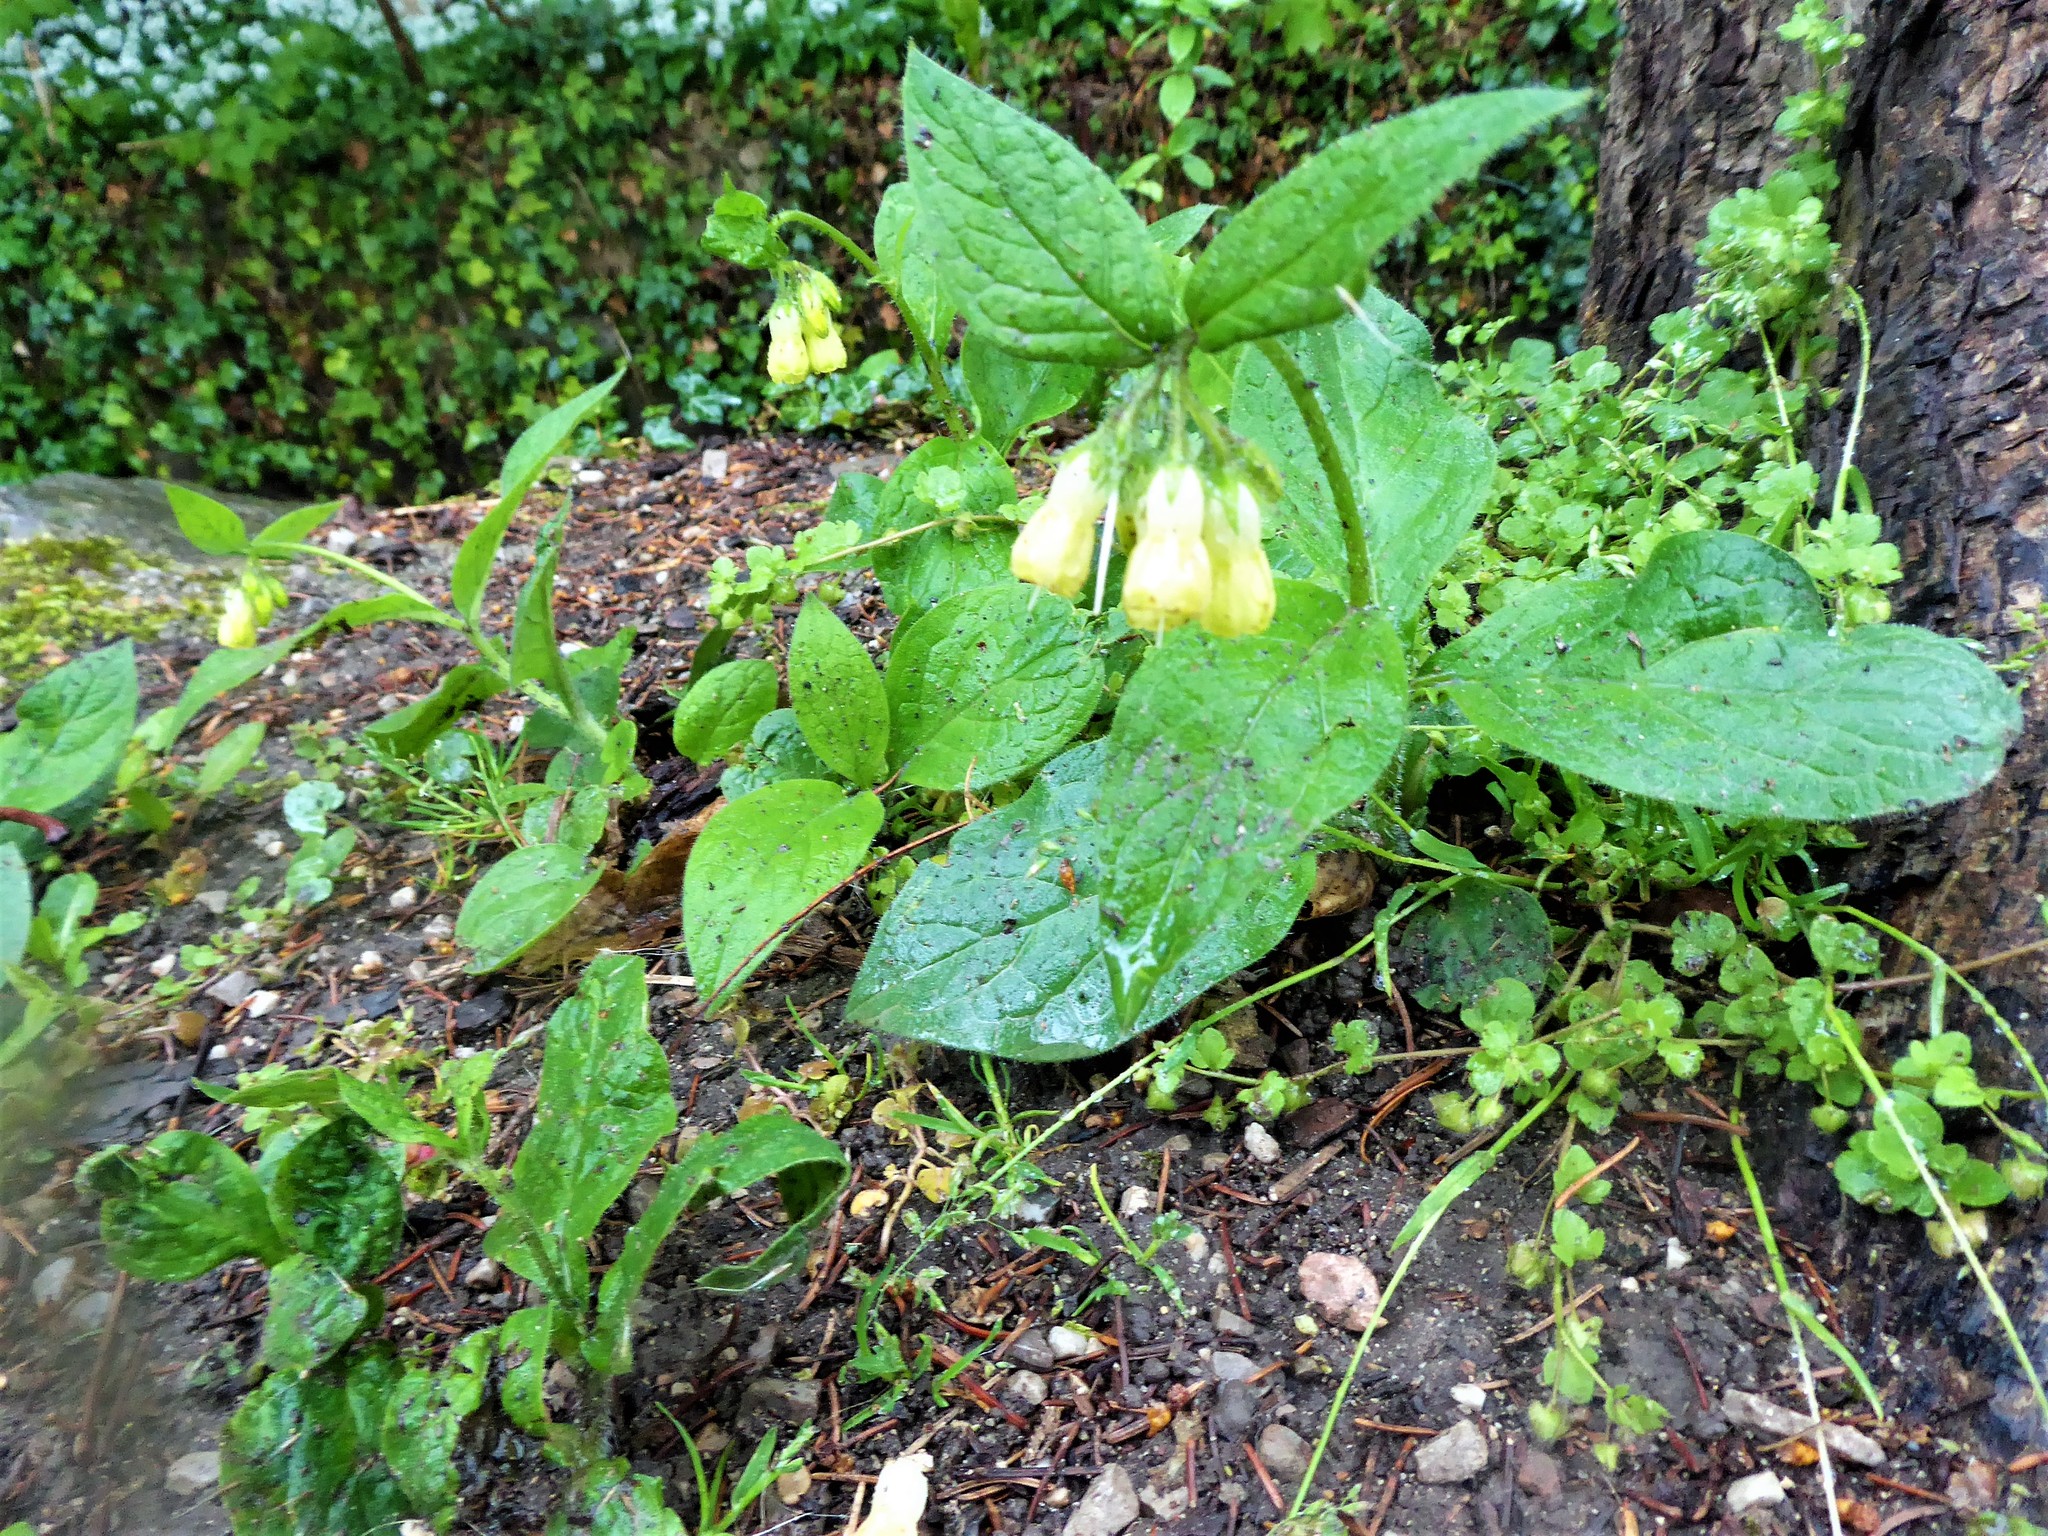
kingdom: Plantae
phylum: Tracheophyta
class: Magnoliopsida
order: Boraginales
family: Boraginaceae
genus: Symphytum
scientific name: Symphytum tuberosum
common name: Tuberous comfrey
